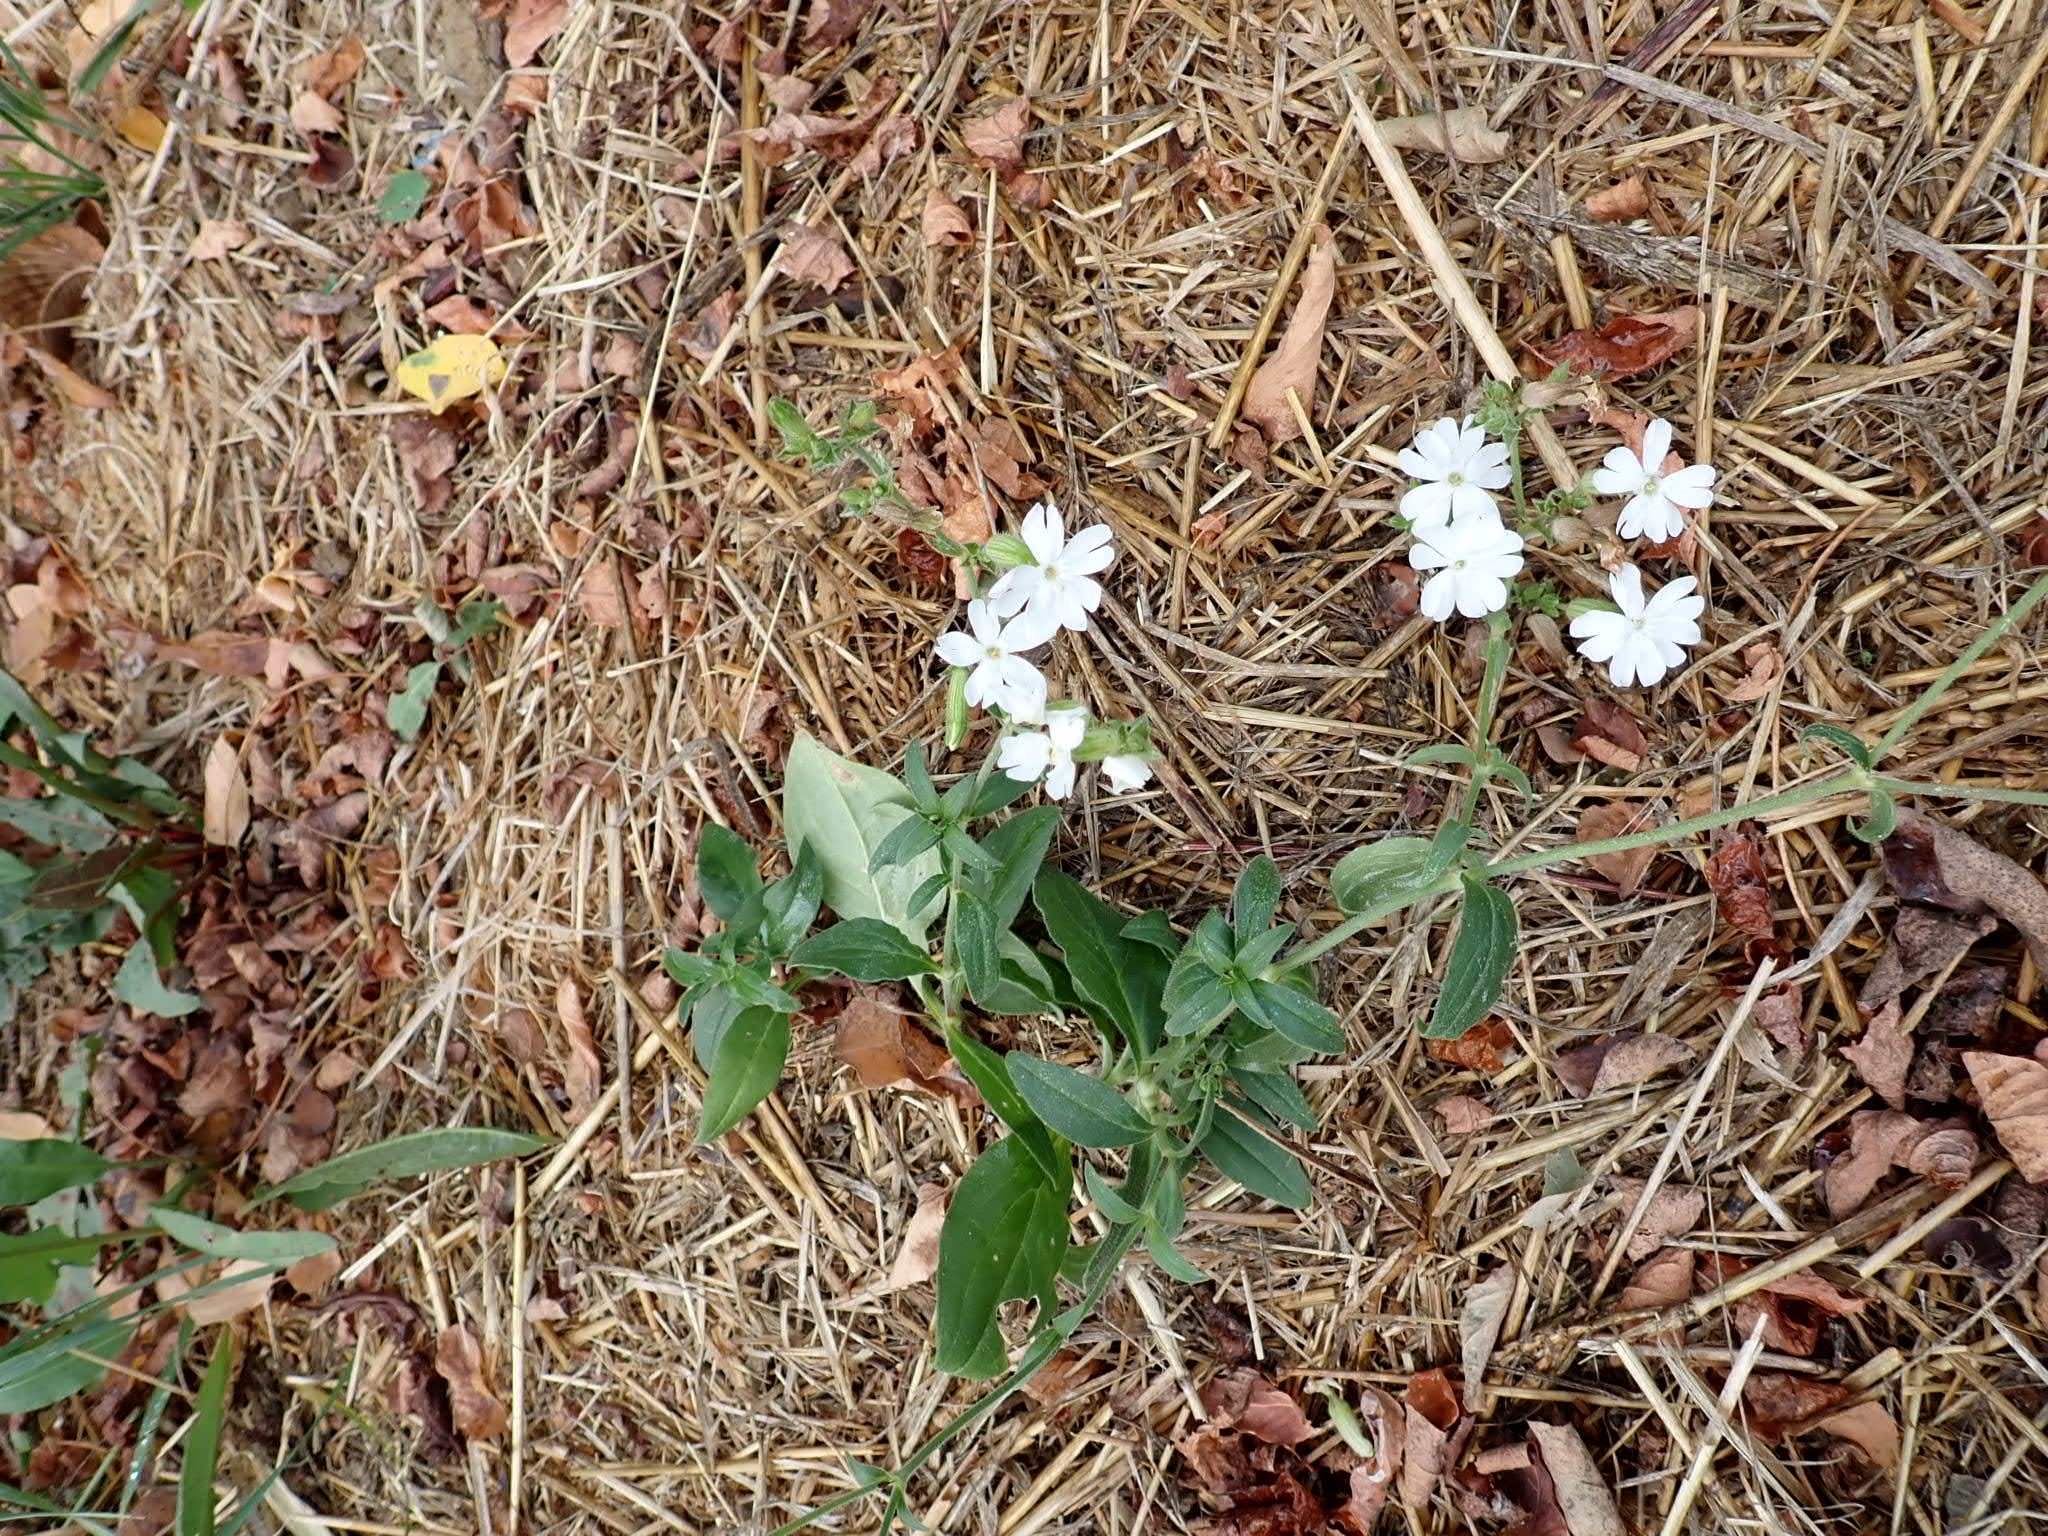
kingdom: Plantae
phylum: Tracheophyta
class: Magnoliopsida
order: Caryophyllales
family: Caryophyllaceae
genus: Silene
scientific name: Silene latifolia
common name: White campion
